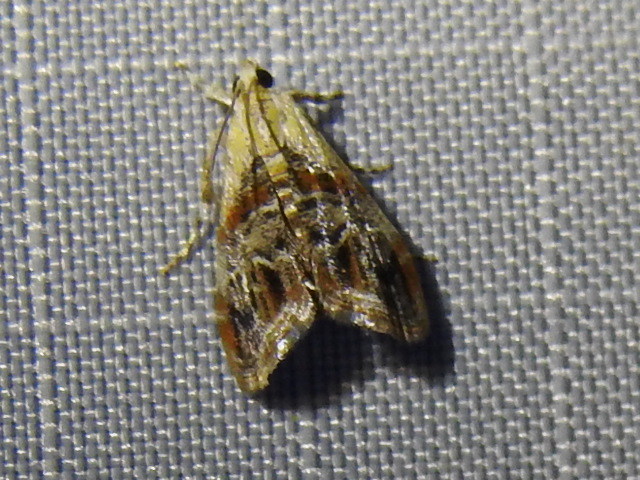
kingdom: Animalia
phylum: Arthropoda
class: Insecta
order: Lepidoptera
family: Crambidae
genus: Dicymolomia
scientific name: Dicymolomia julianalis
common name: Julia's dicymolomia moth
